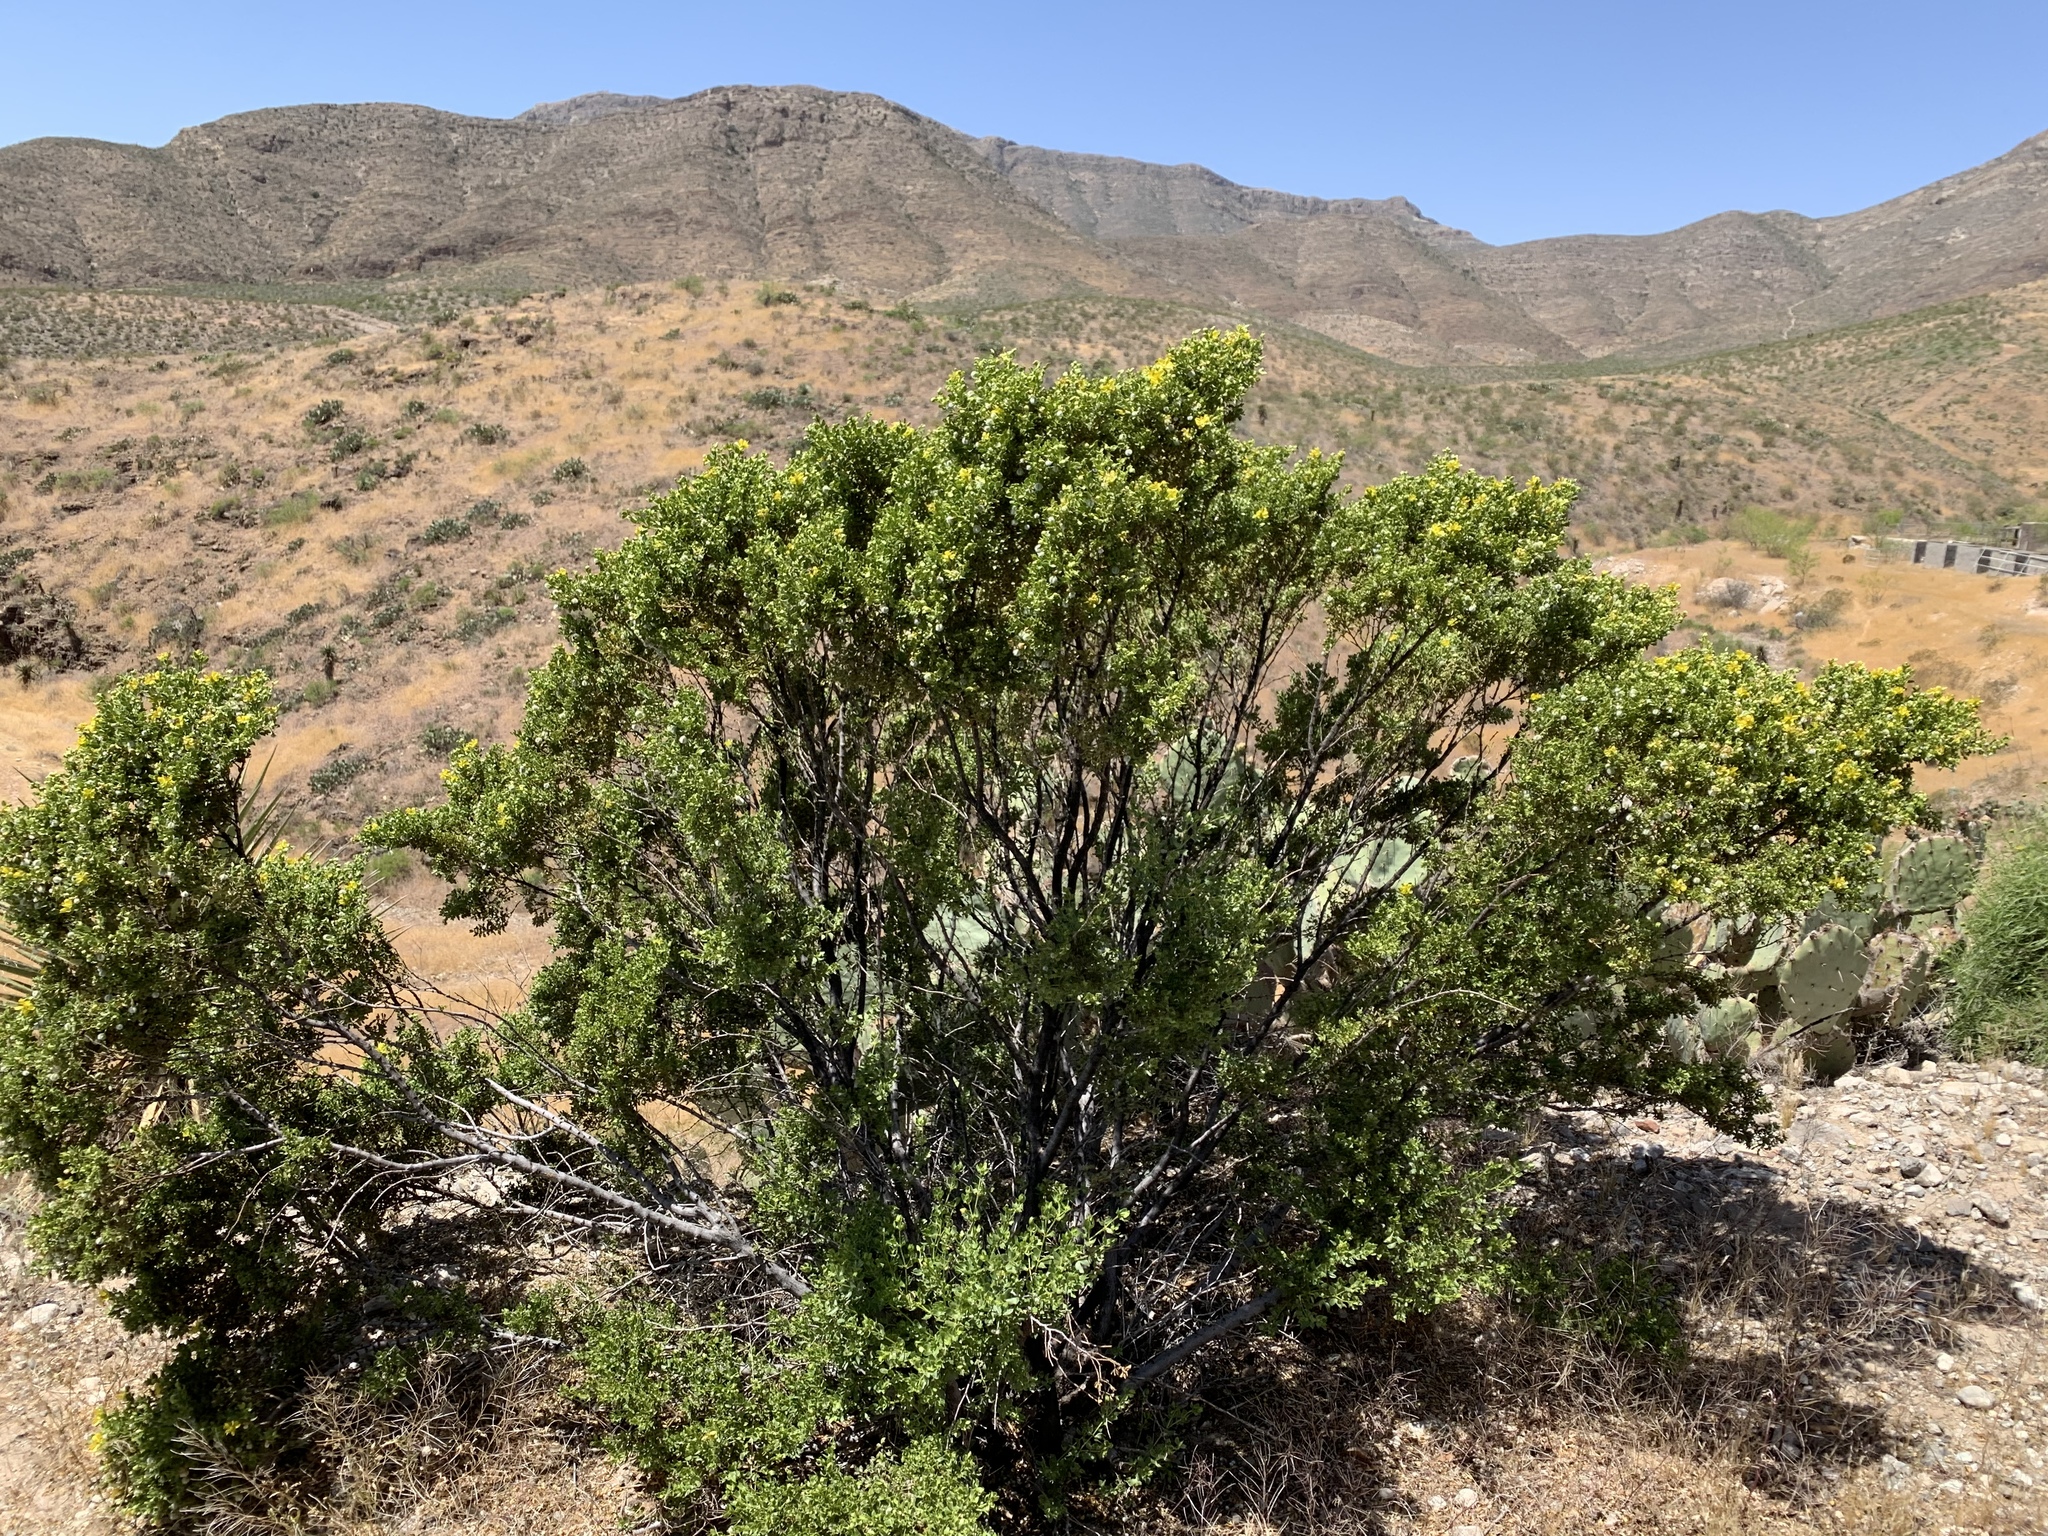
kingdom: Plantae
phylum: Tracheophyta
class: Magnoliopsida
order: Zygophyllales
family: Zygophyllaceae
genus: Larrea
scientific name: Larrea tridentata
